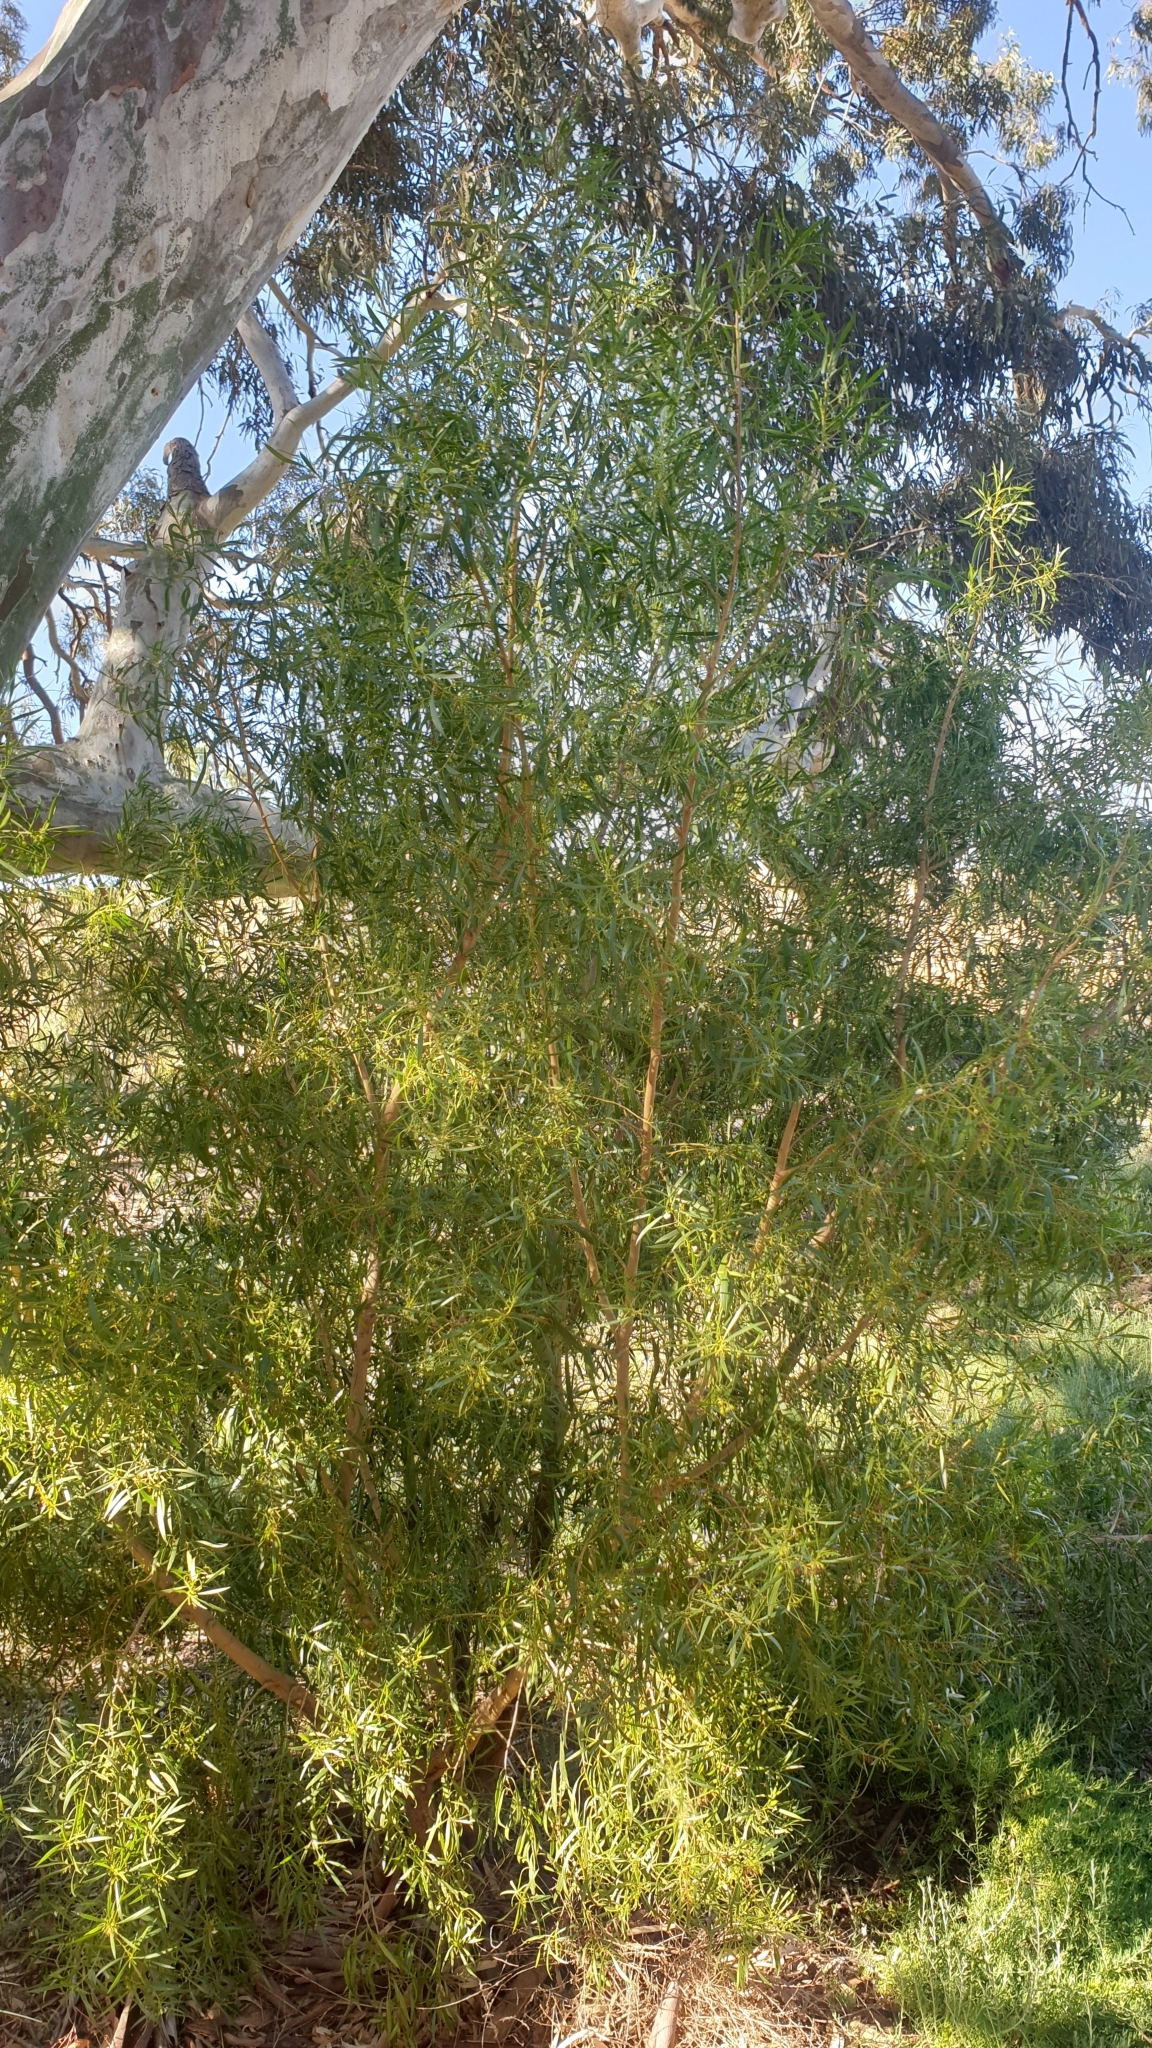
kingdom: Plantae
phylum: Tracheophyta
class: Magnoliopsida
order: Lamiales
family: Scrophulariaceae
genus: Myoporum
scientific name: Myoporum montanum
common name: Waterbush
